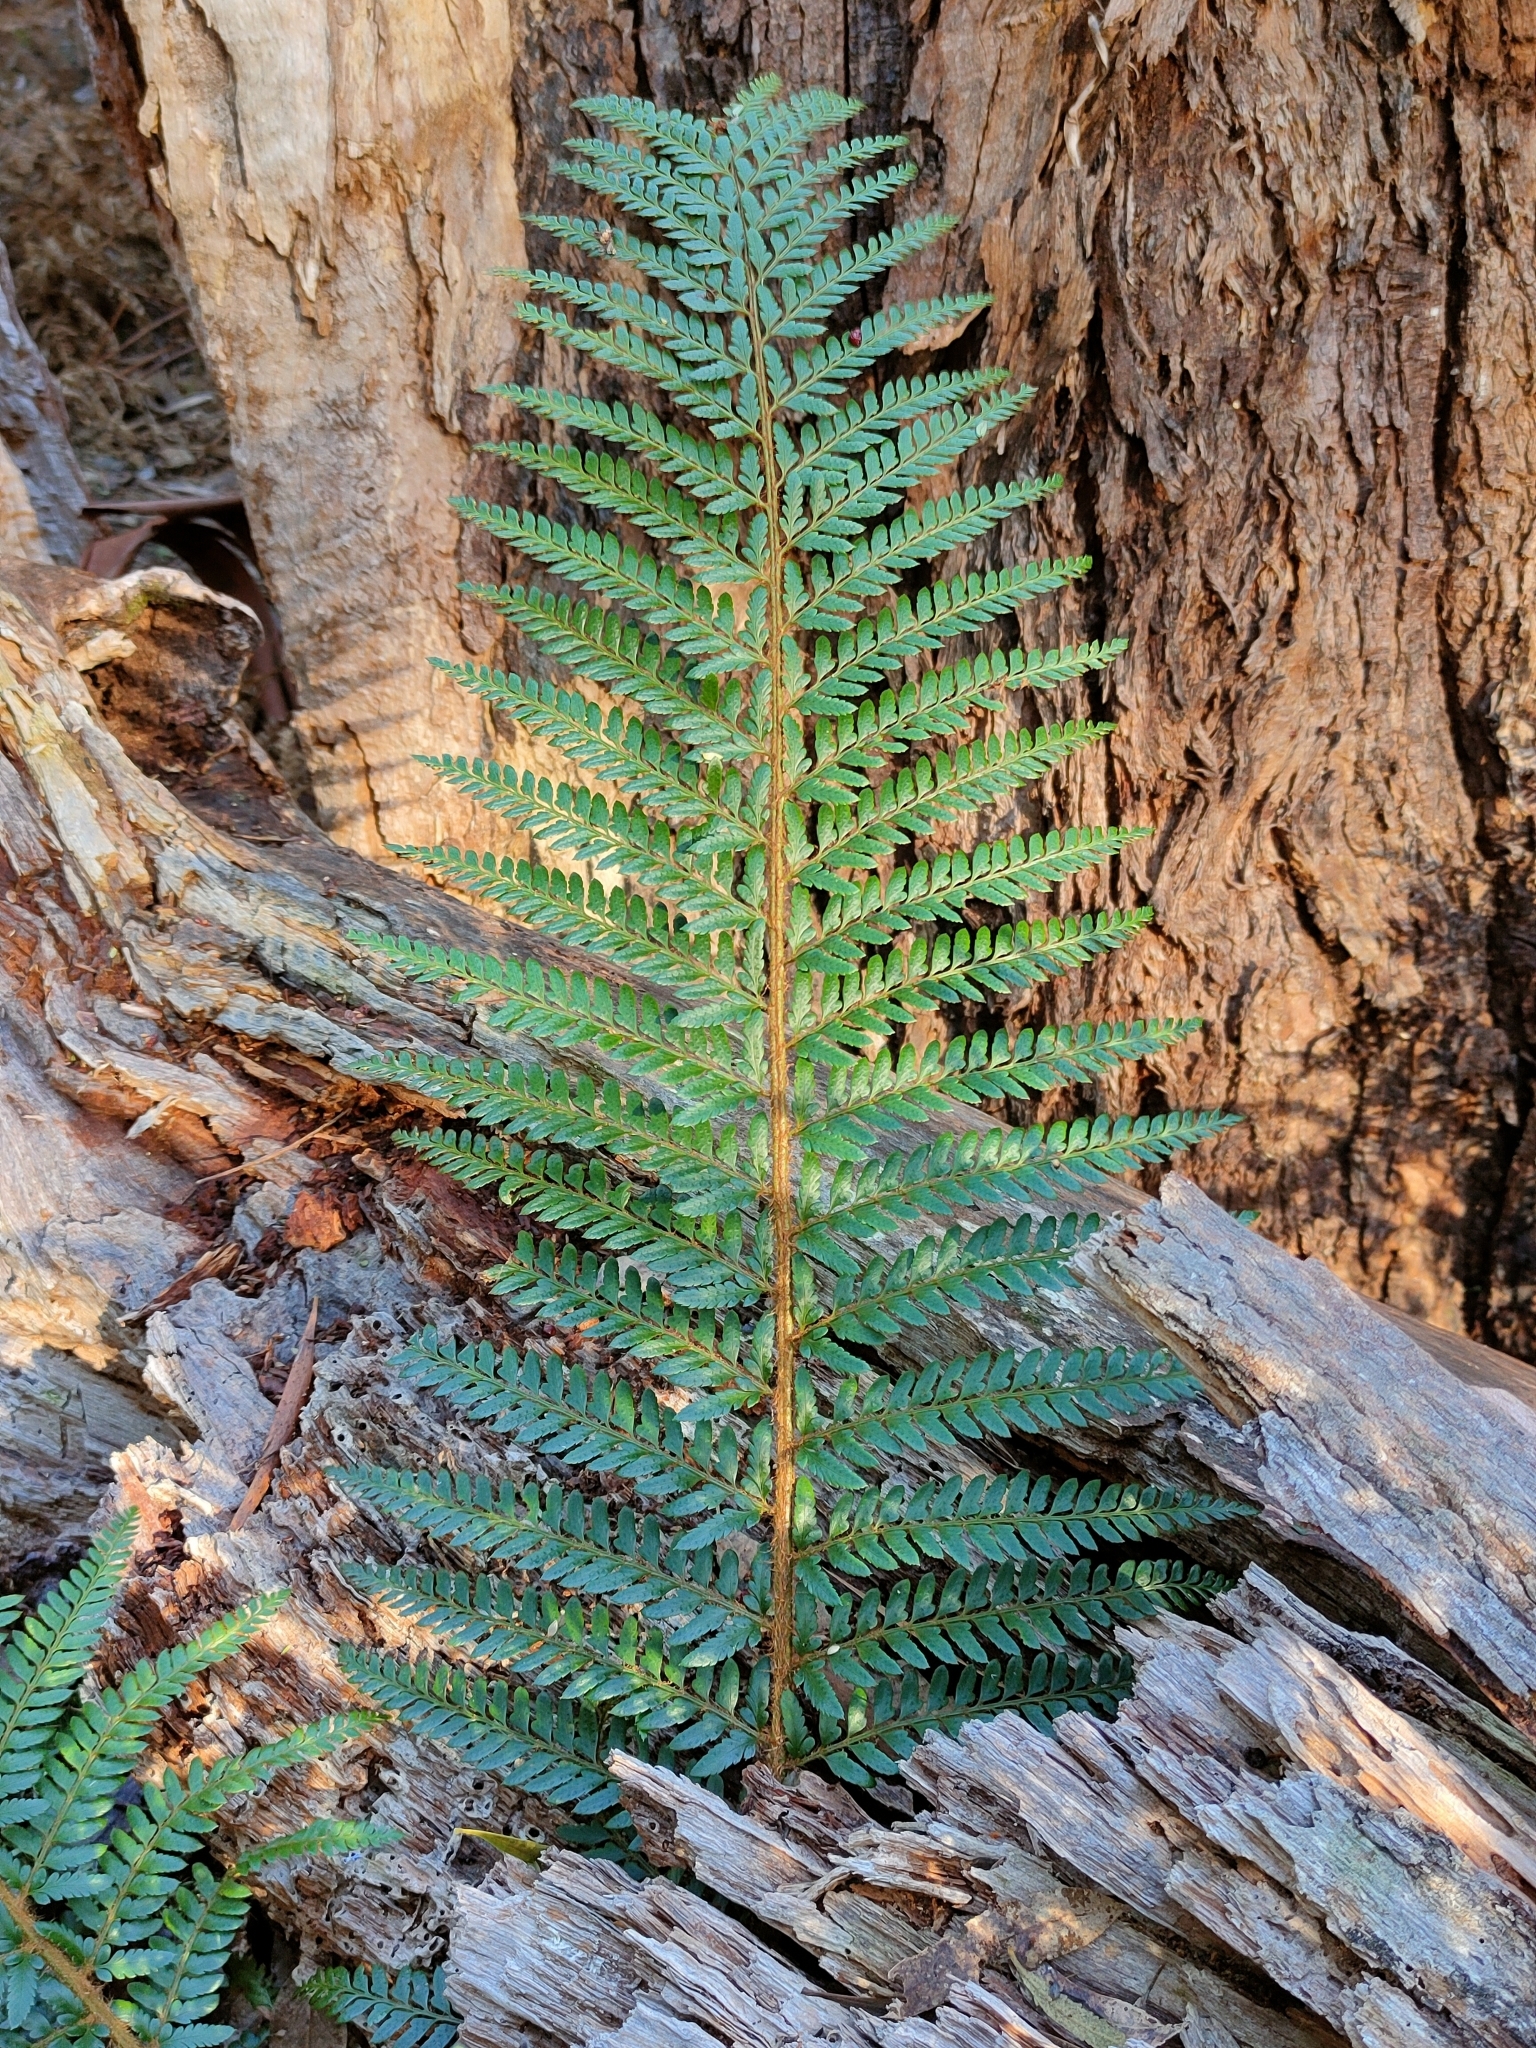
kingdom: Plantae
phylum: Tracheophyta
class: Polypodiopsida
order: Polypodiales
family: Dryopteridaceae
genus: Polystichum
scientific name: Polystichum proliferum
